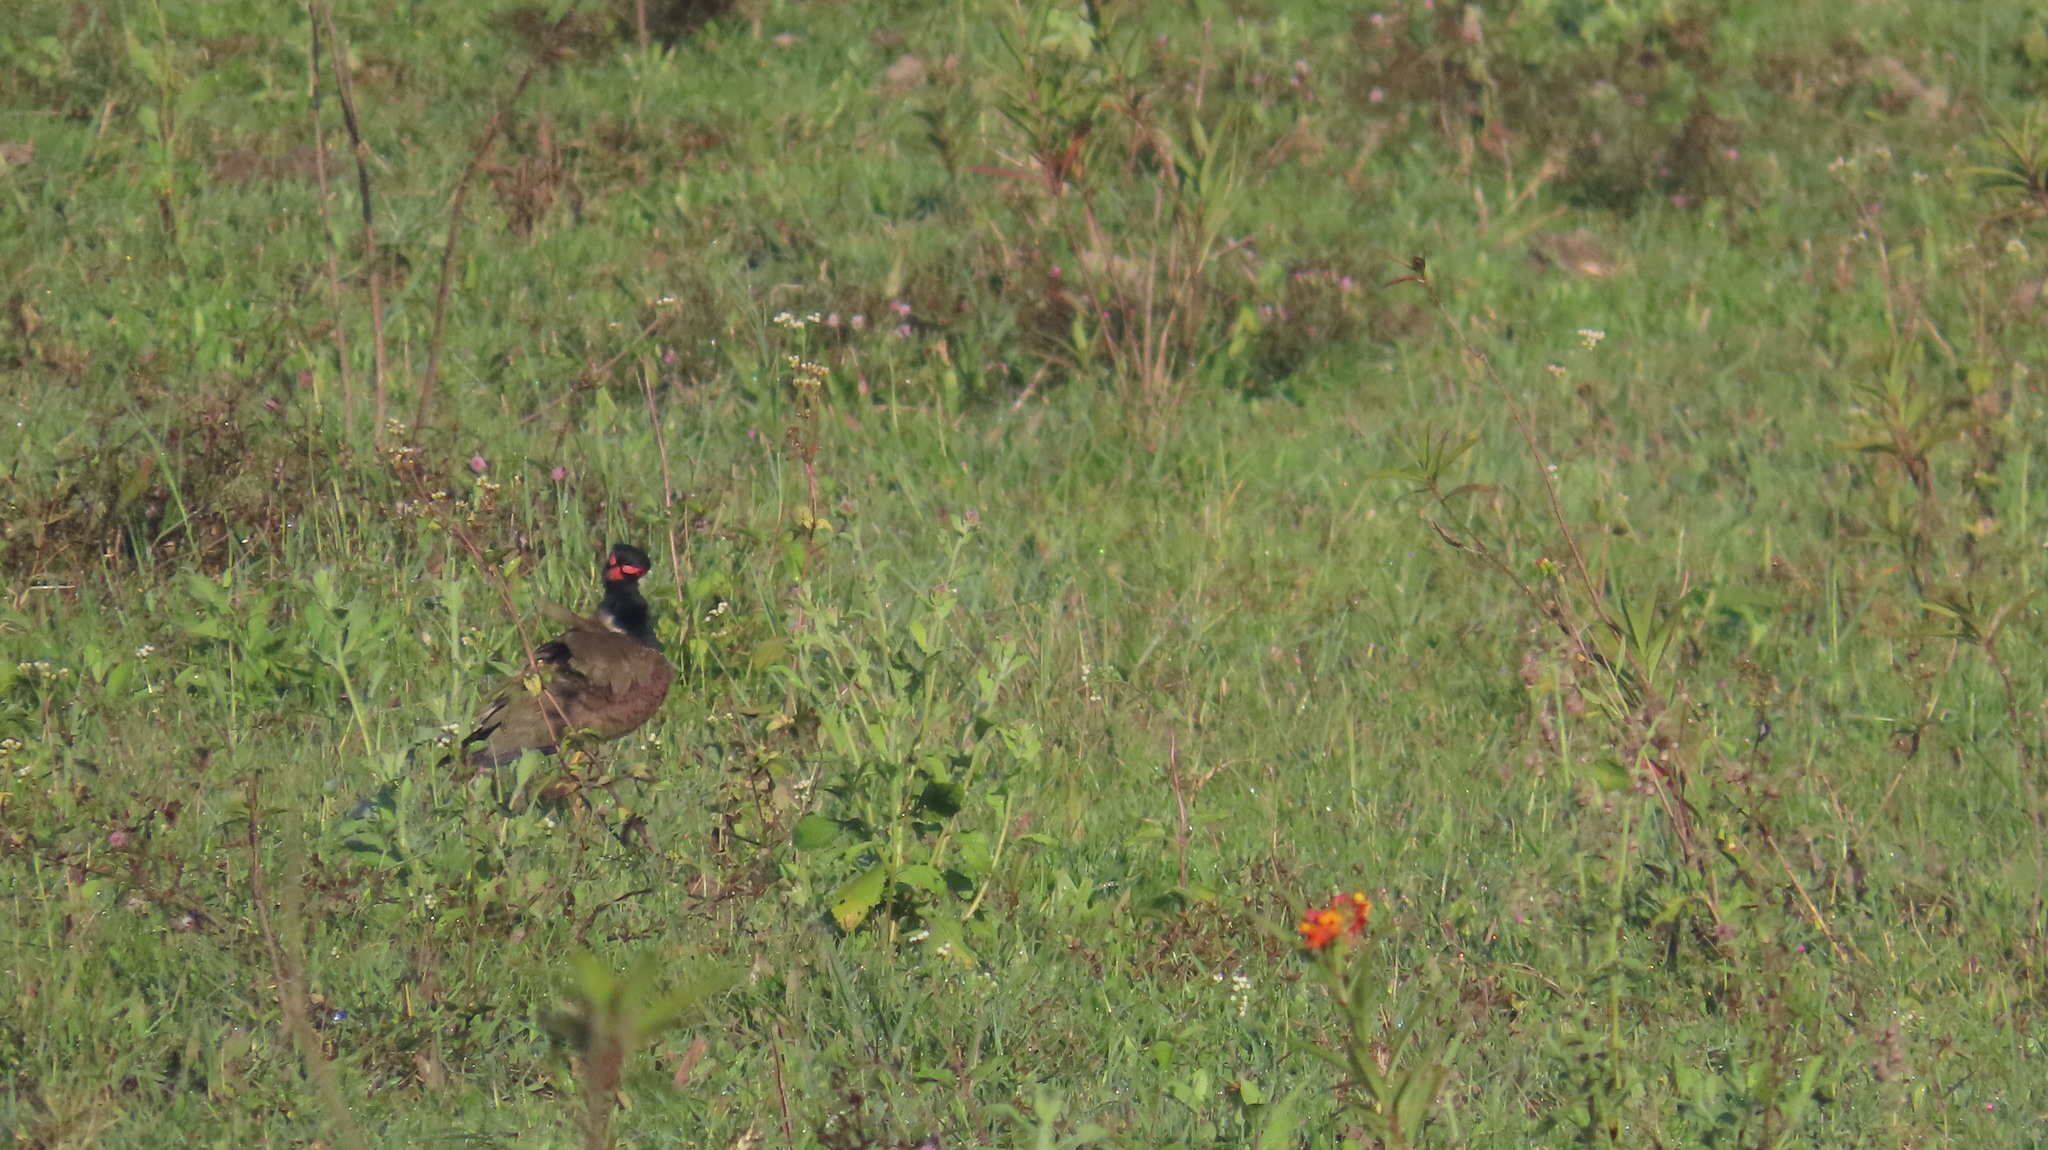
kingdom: Animalia
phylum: Chordata
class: Aves
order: Charadriiformes
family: Charadriidae
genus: Vanellus
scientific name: Vanellus indicus
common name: Red-wattled lapwing
